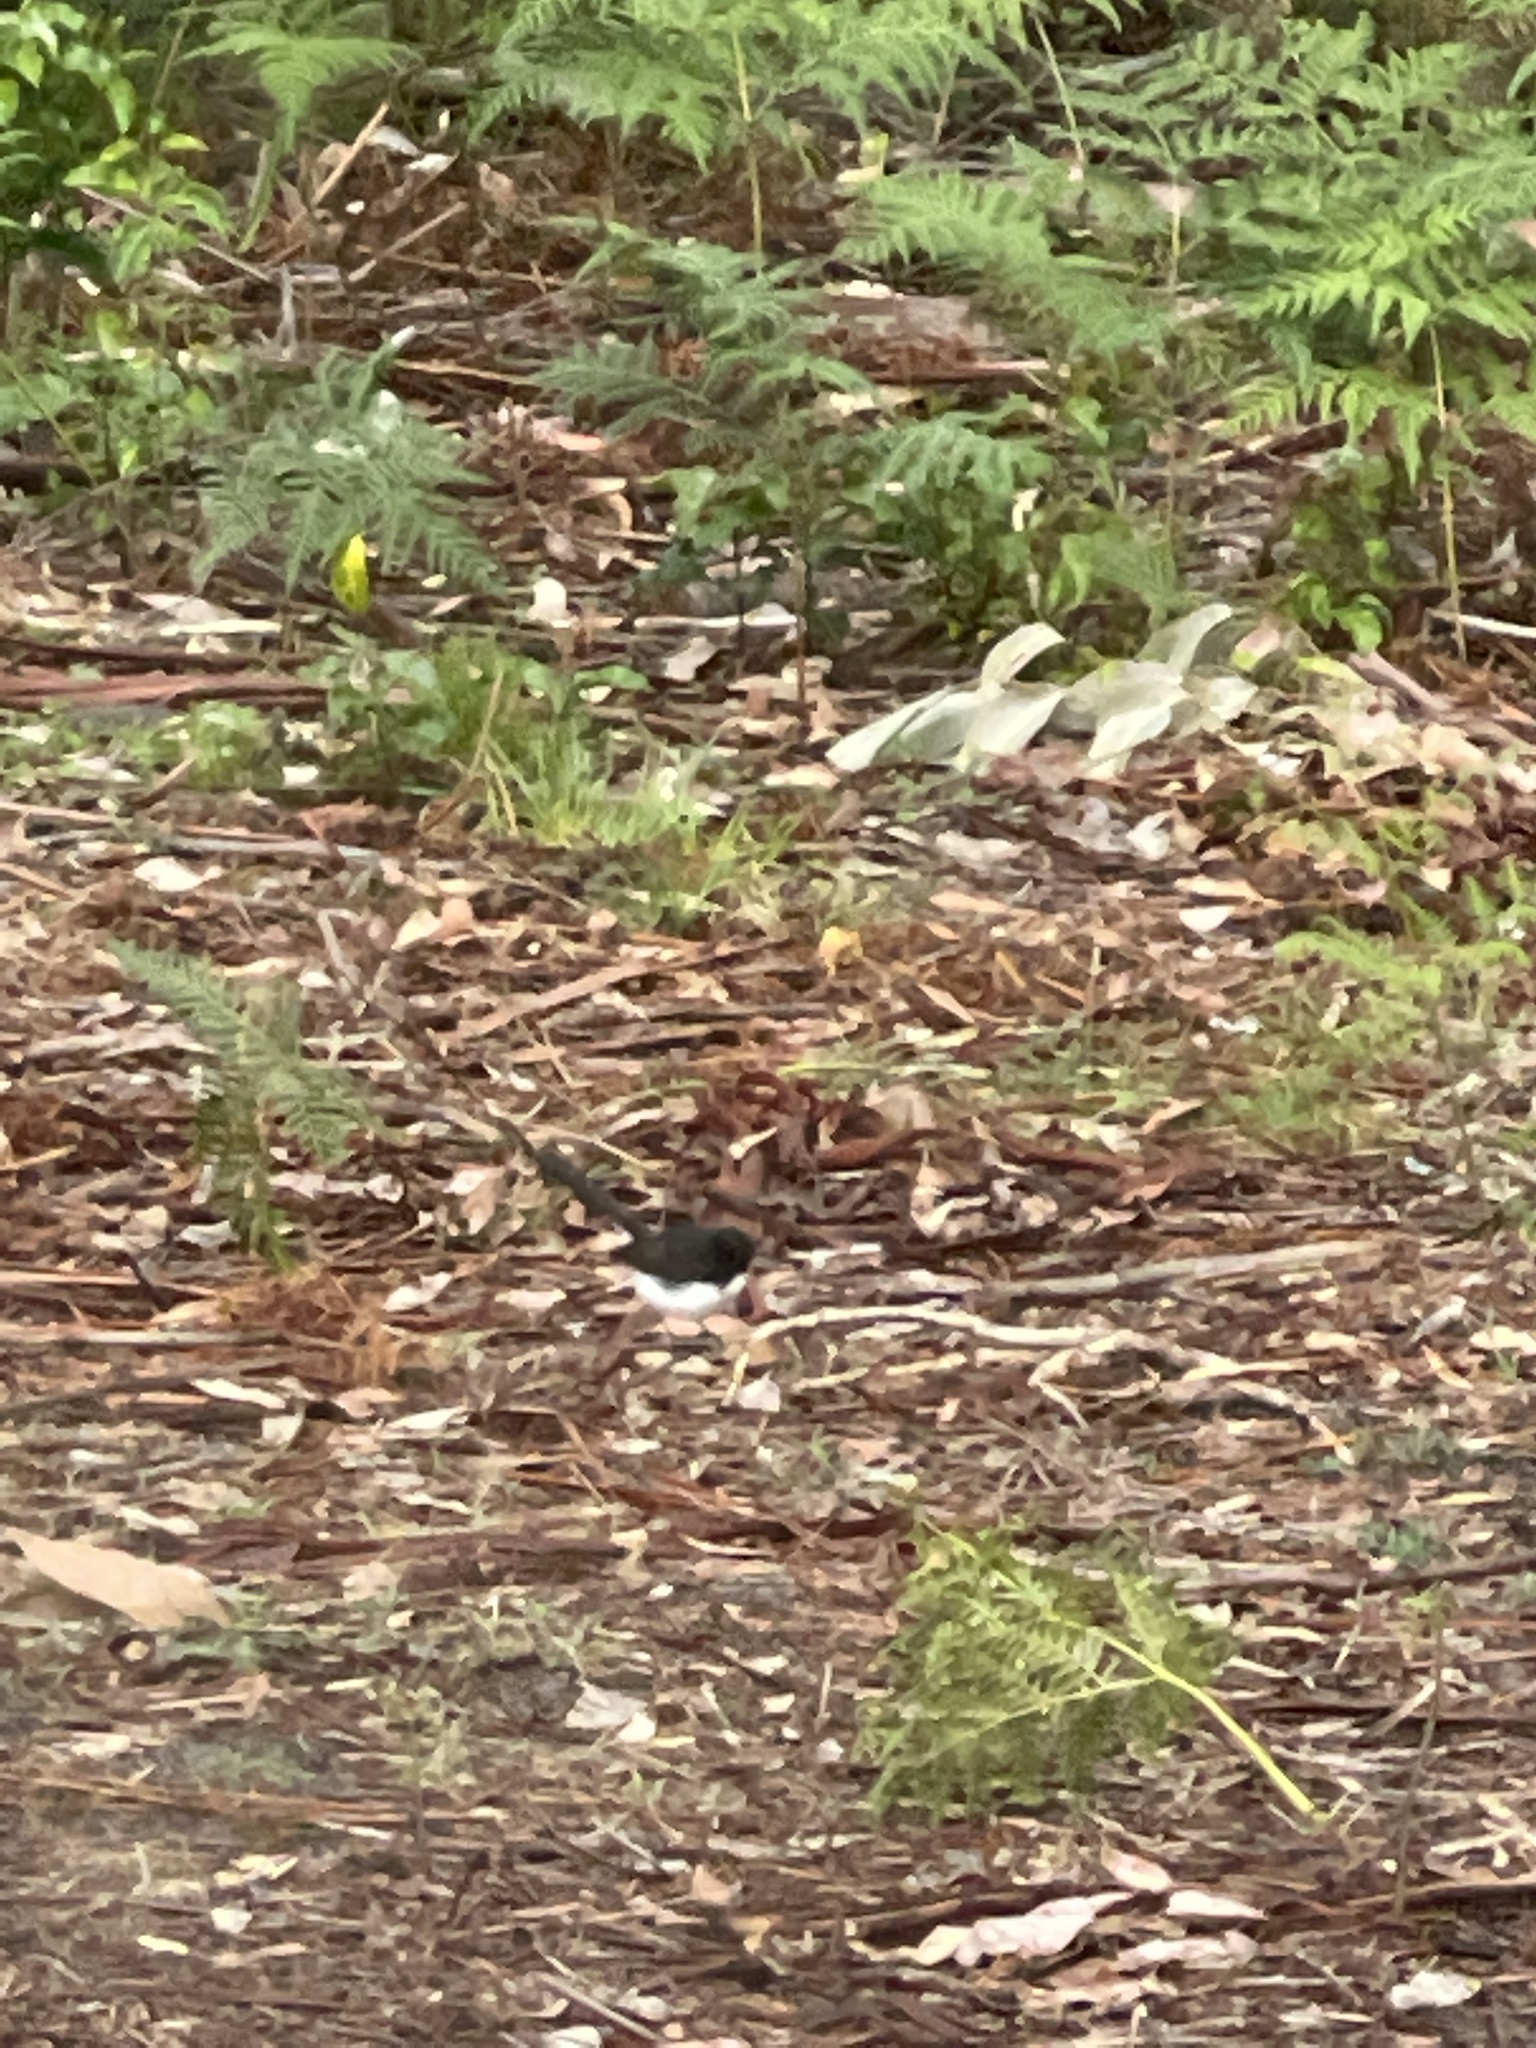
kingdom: Animalia
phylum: Chordata
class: Aves
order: Passeriformes
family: Rhipiduridae
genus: Rhipidura
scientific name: Rhipidura leucophrys
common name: Willie wagtail
